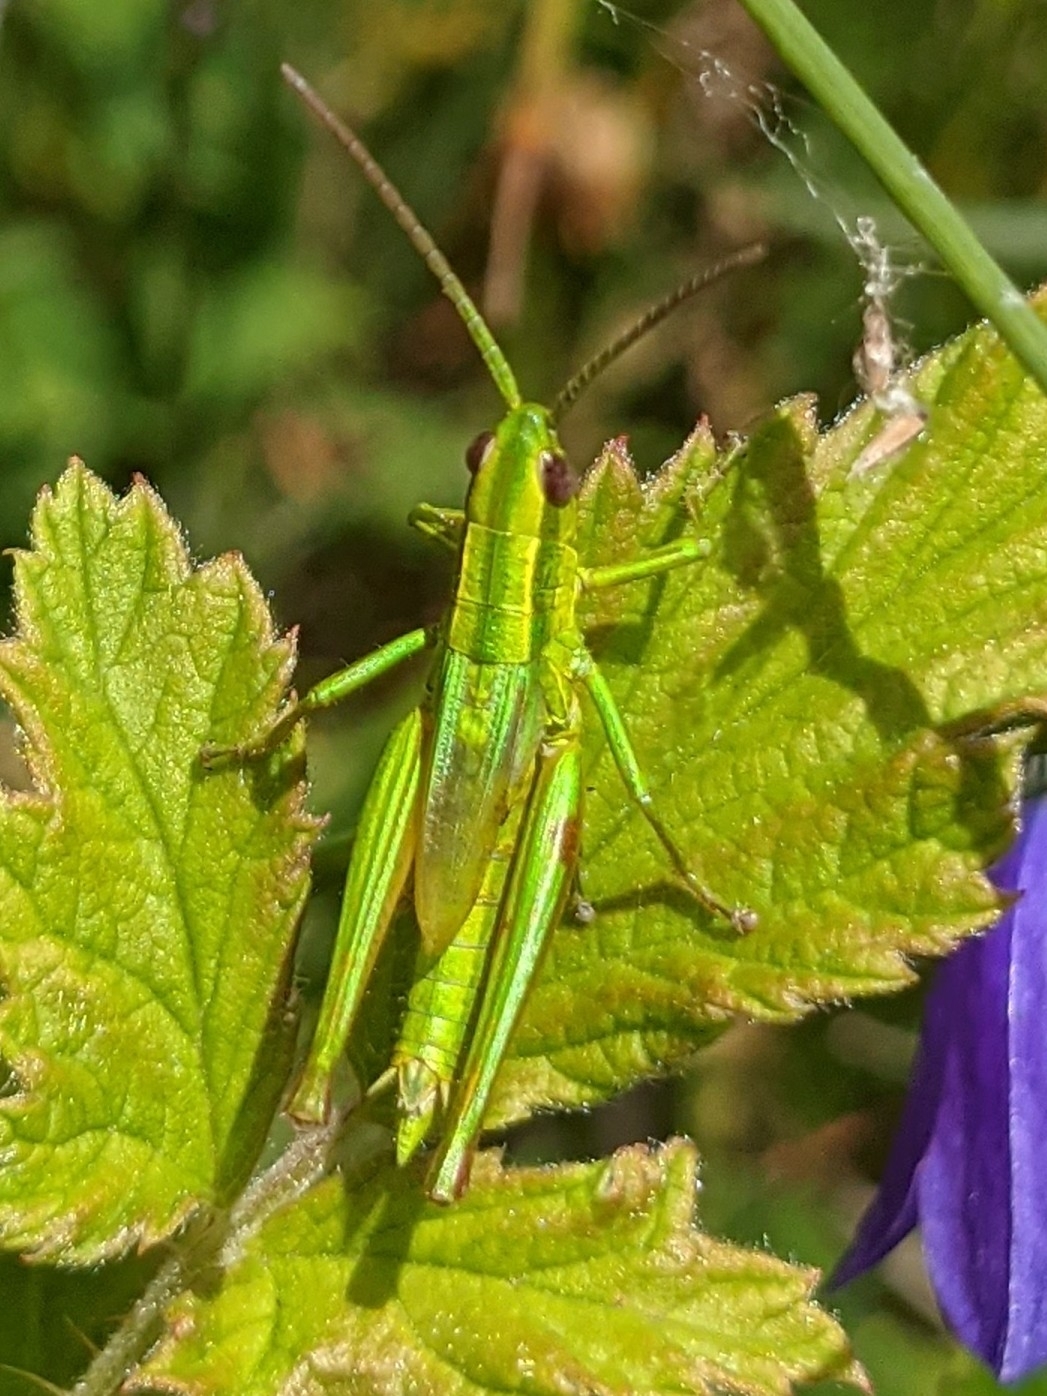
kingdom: Animalia
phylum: Arthropoda
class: Insecta
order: Orthoptera
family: Acrididae
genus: Euthystira
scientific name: Euthystira brachyptera
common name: Small gold grasshopper
